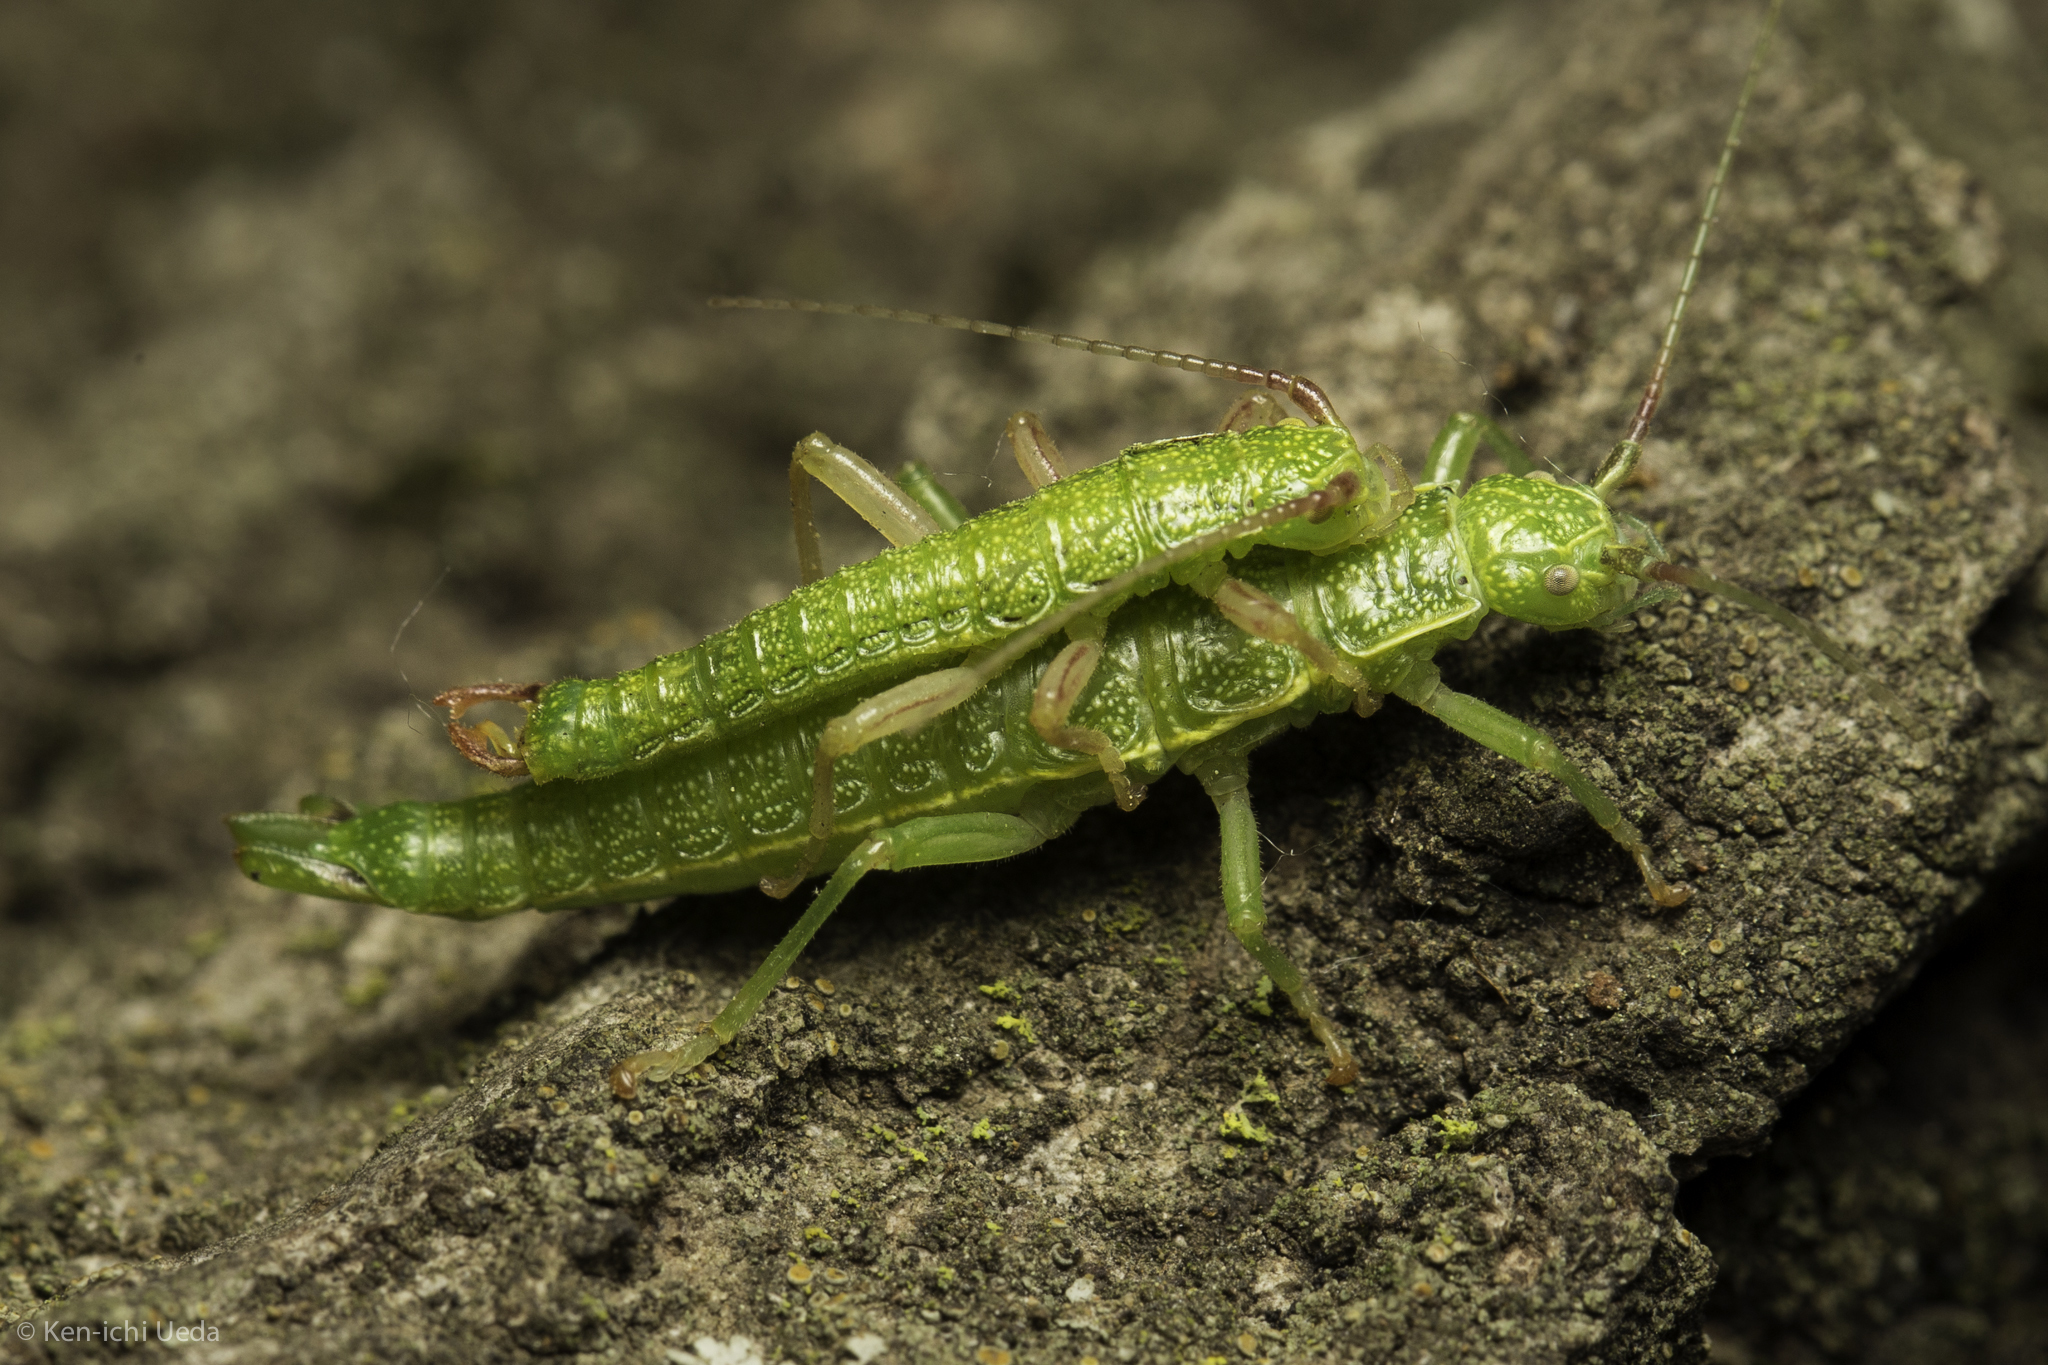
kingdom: Animalia
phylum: Arthropoda
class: Insecta
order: Phasmida
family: Timematidae
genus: Timema
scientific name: Timema californicum
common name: California timema
